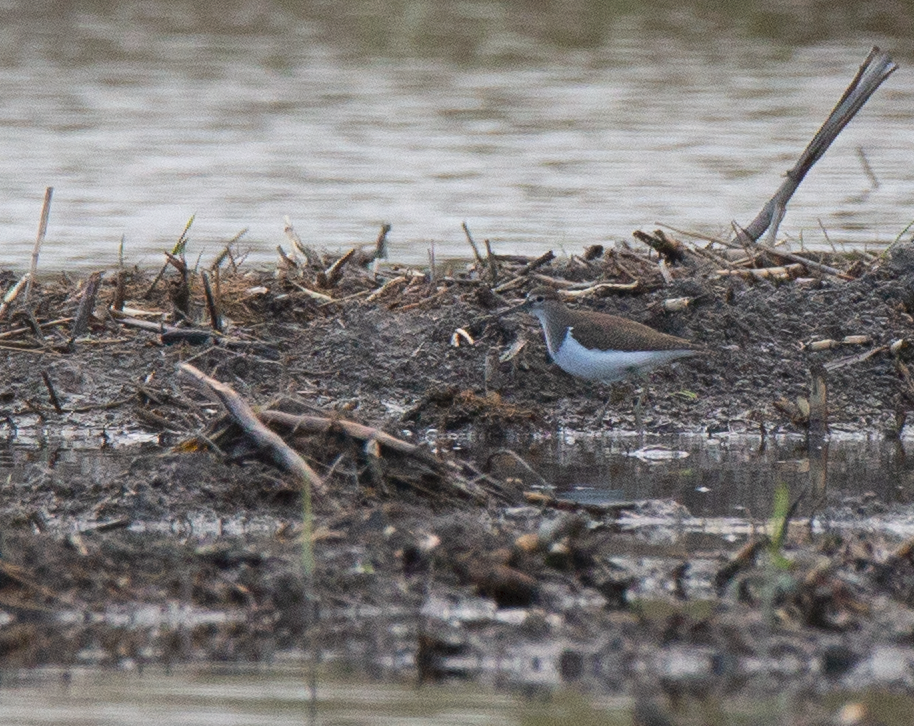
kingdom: Animalia
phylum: Chordata
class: Aves
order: Charadriiformes
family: Scolopacidae
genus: Actitis
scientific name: Actitis hypoleucos
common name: Common sandpiper
